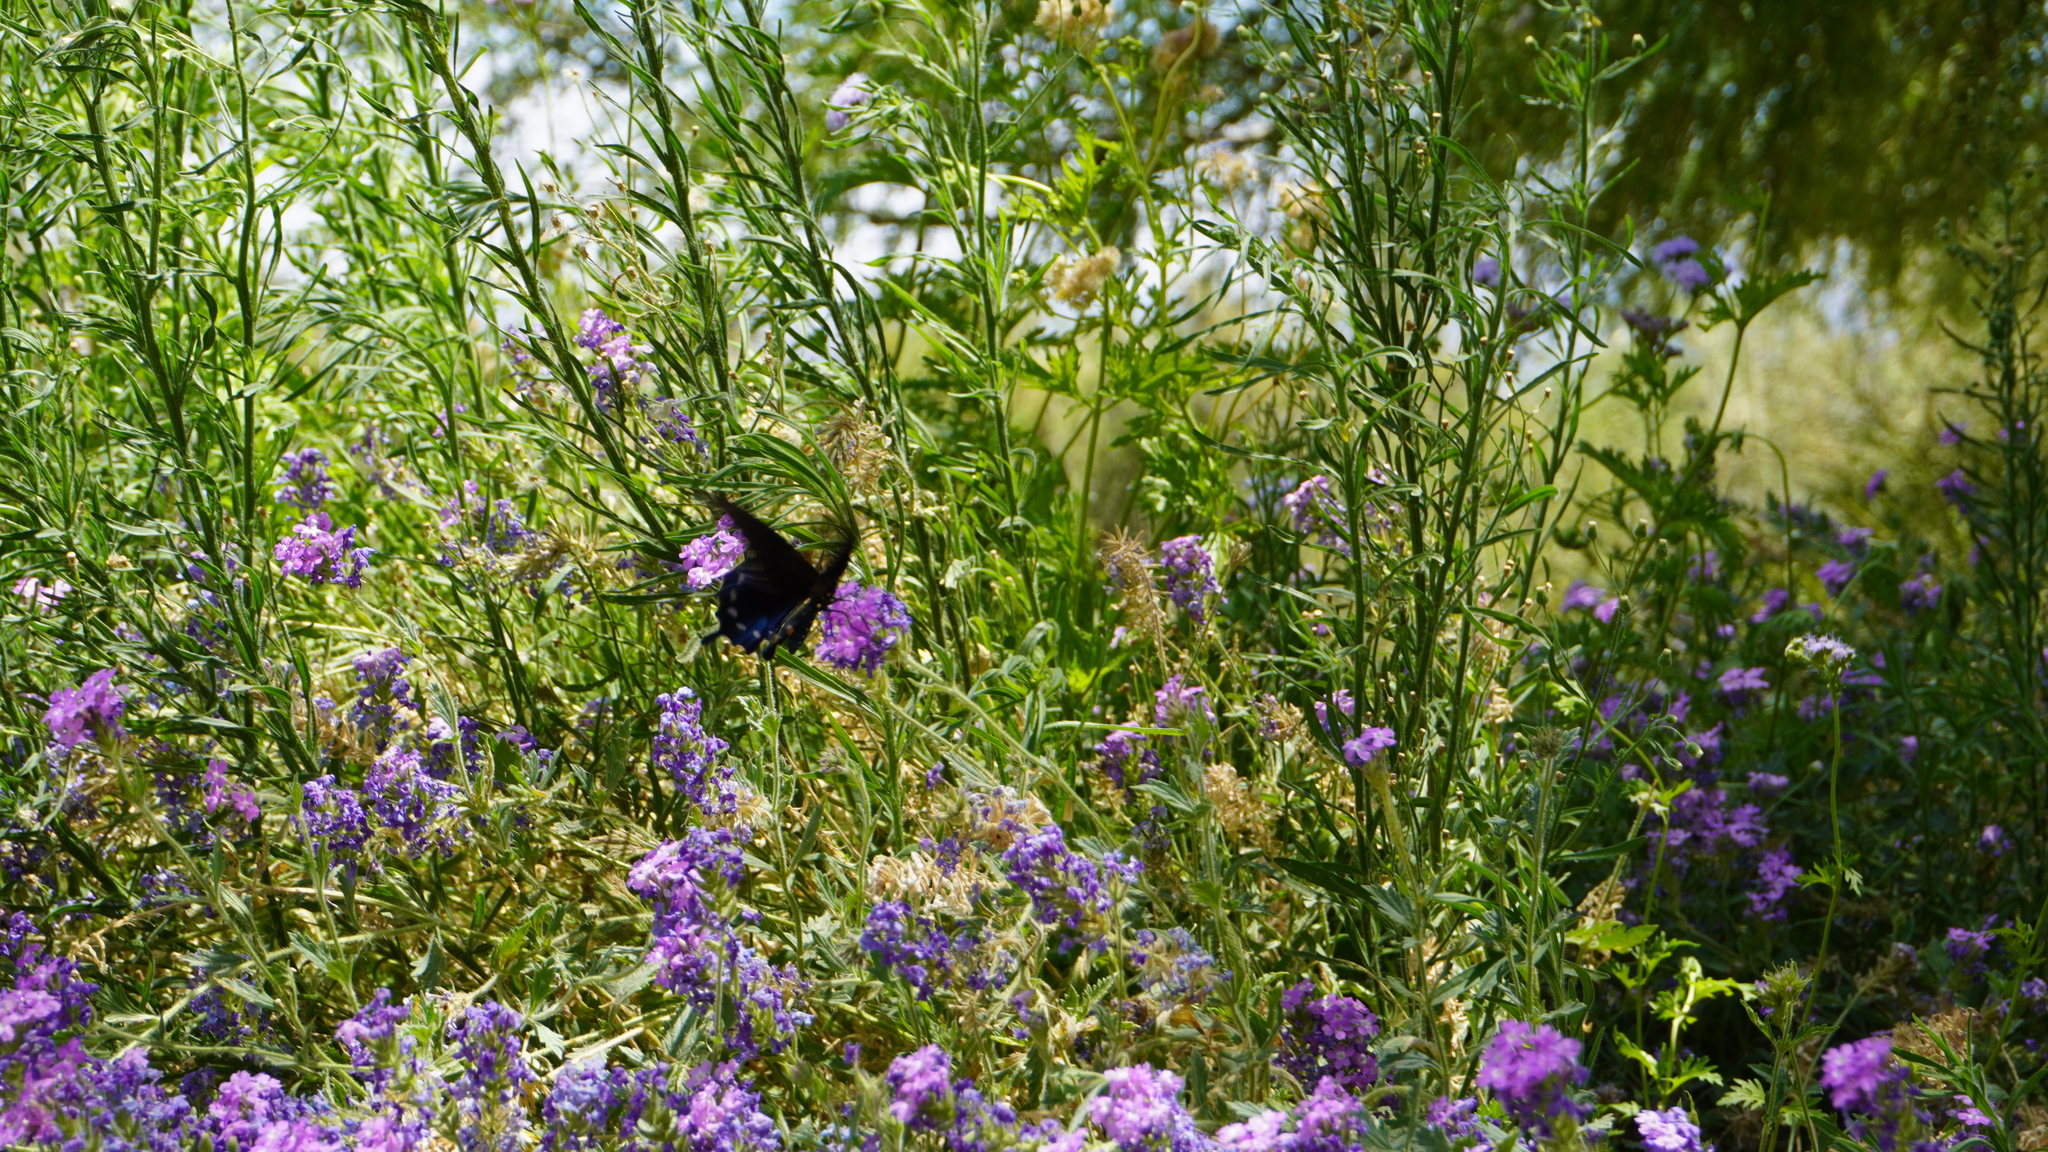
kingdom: Animalia
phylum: Arthropoda
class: Insecta
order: Lepidoptera
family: Papilionidae
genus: Battus
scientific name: Battus philenor
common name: Pipevine swallowtail
